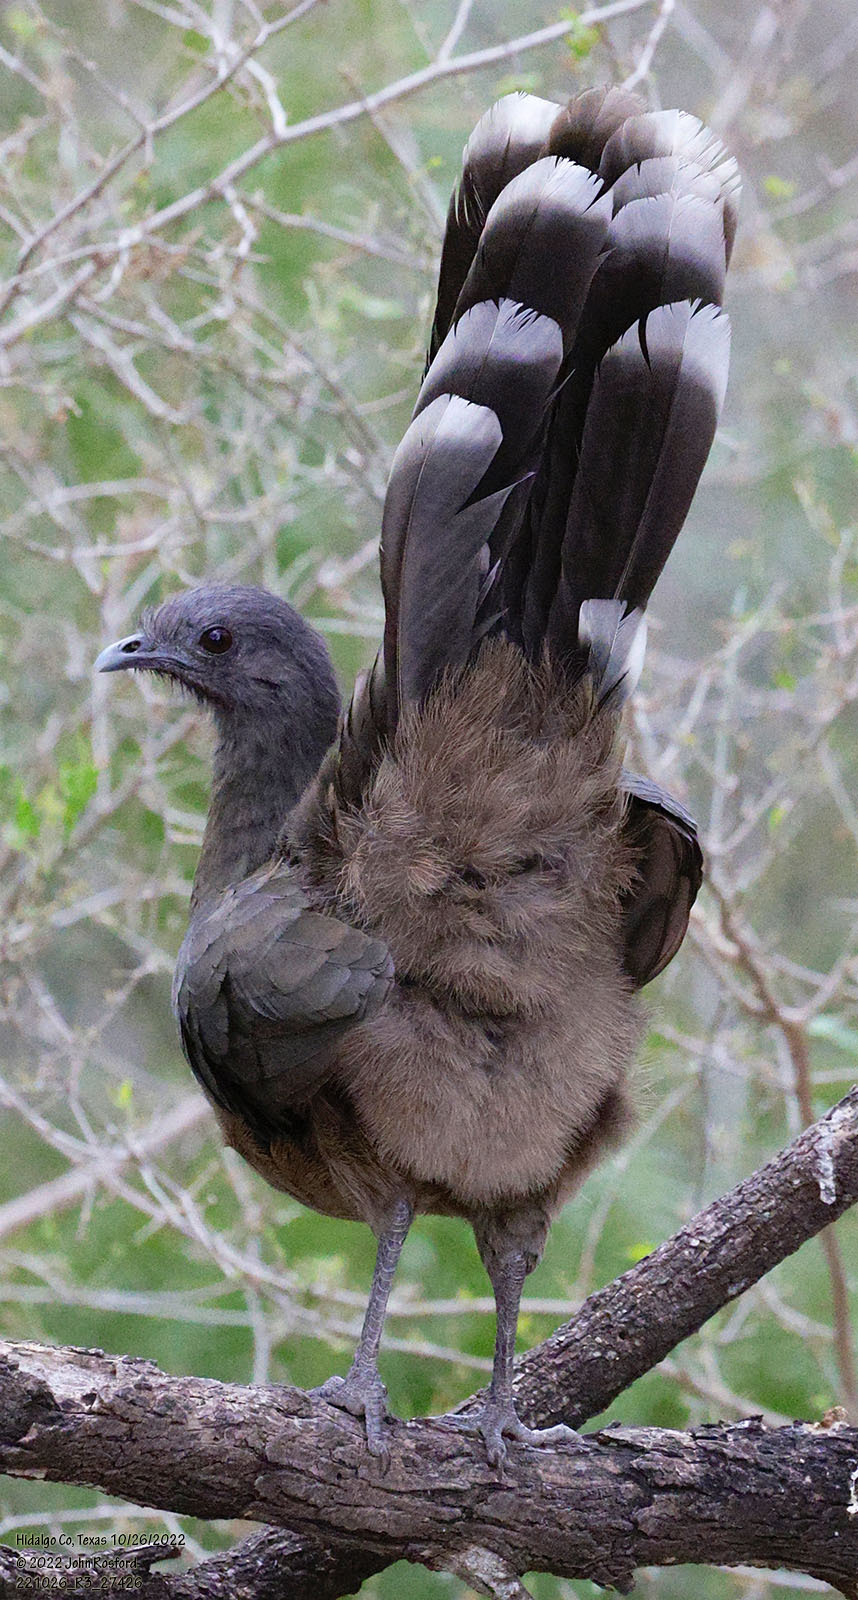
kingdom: Animalia
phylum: Chordata
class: Aves
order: Galliformes
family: Cracidae
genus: Ortalis
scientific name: Ortalis vetula
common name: Plain chachalaca
